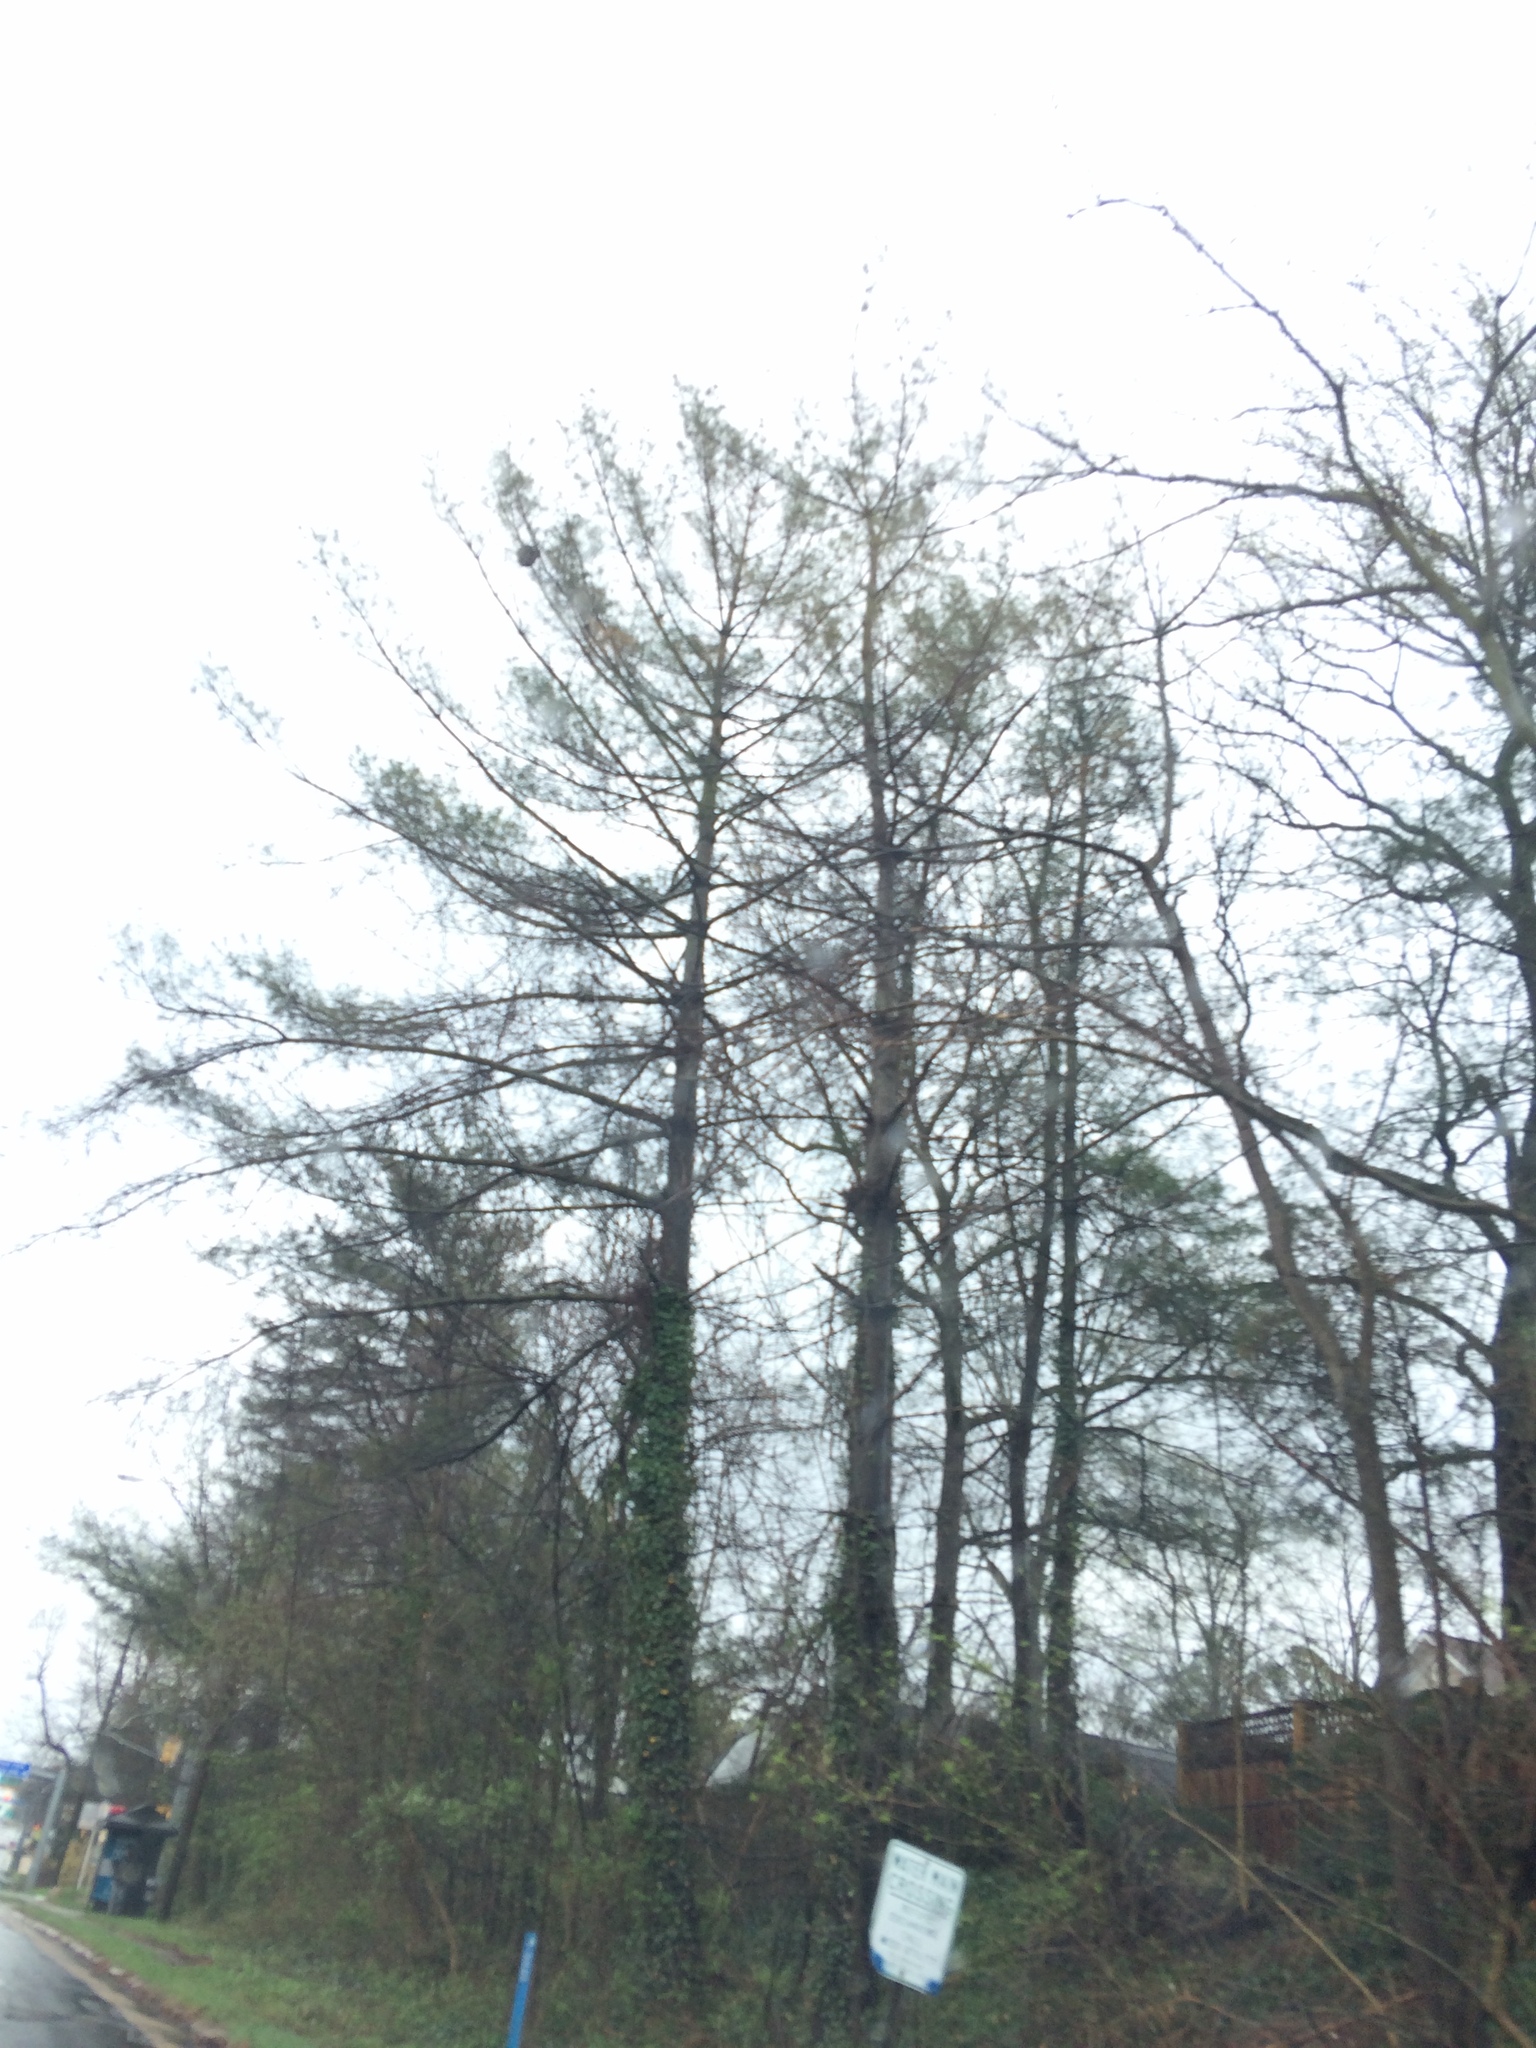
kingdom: Plantae
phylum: Tracheophyta
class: Pinopsida
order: Pinales
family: Pinaceae
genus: Pinus
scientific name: Pinus strobus
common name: Weymouth pine
